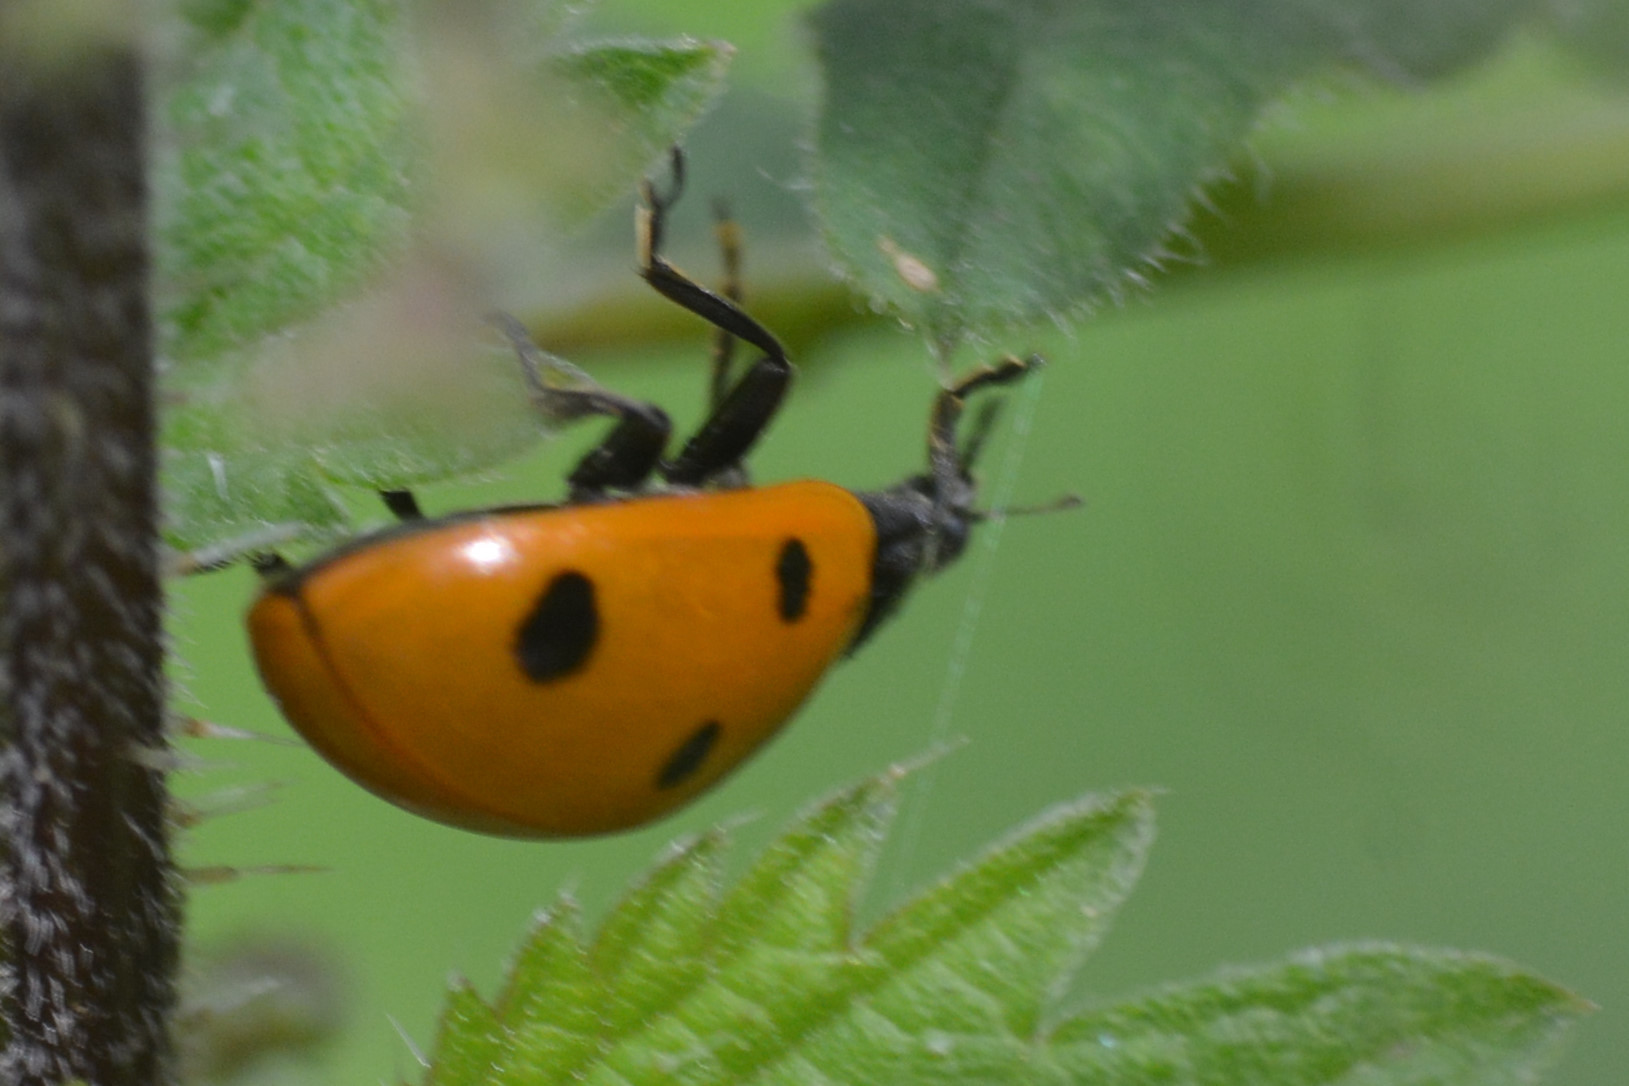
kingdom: Animalia
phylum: Arthropoda
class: Insecta
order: Coleoptera
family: Coccinellidae
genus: Coccinella
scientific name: Coccinella septempunctata
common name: Sevenspotted lady beetle
